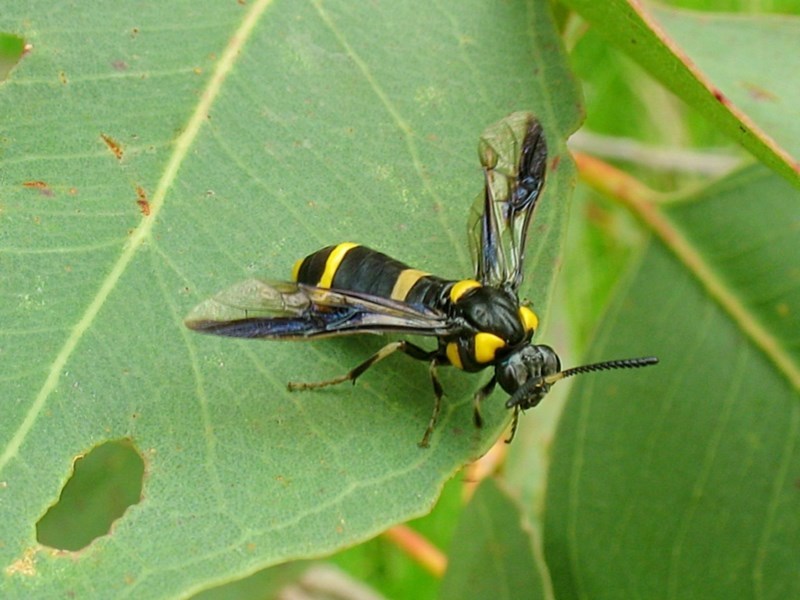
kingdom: Animalia
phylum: Arthropoda
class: Insecta
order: Hymenoptera
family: Pergidae
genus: Pterygophorus
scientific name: Pterygophorus
